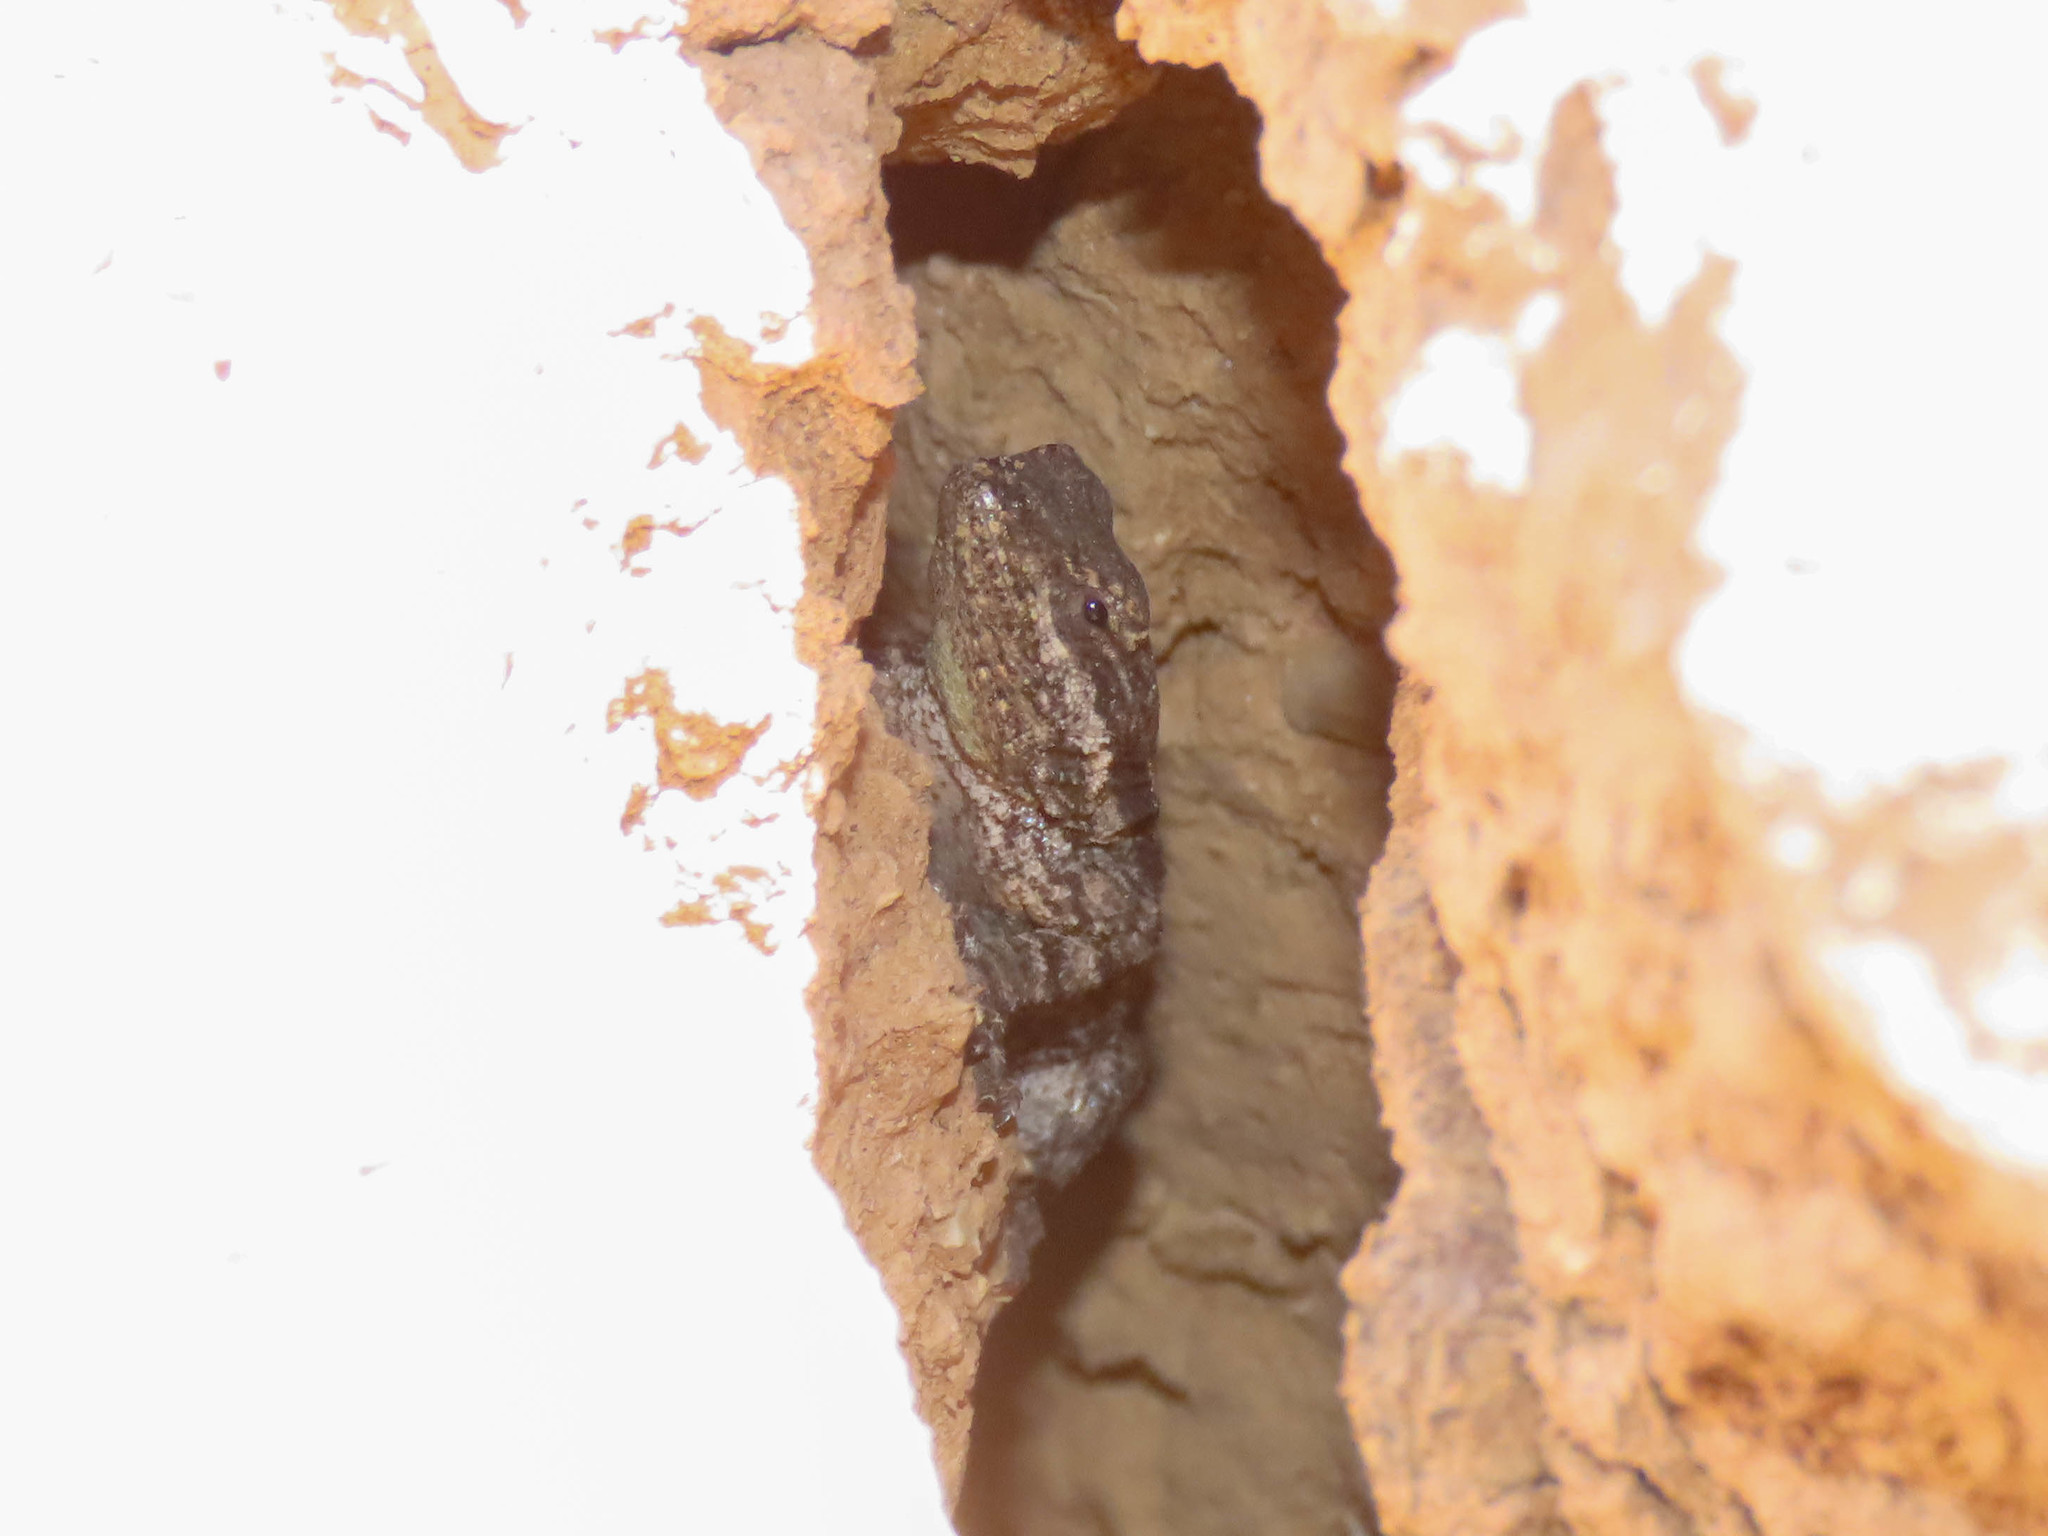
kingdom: Animalia
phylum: Chordata
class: Squamata
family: Phrynosomatidae
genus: Urosaurus
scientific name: Urosaurus ornatus
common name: Ornate tree lizard
